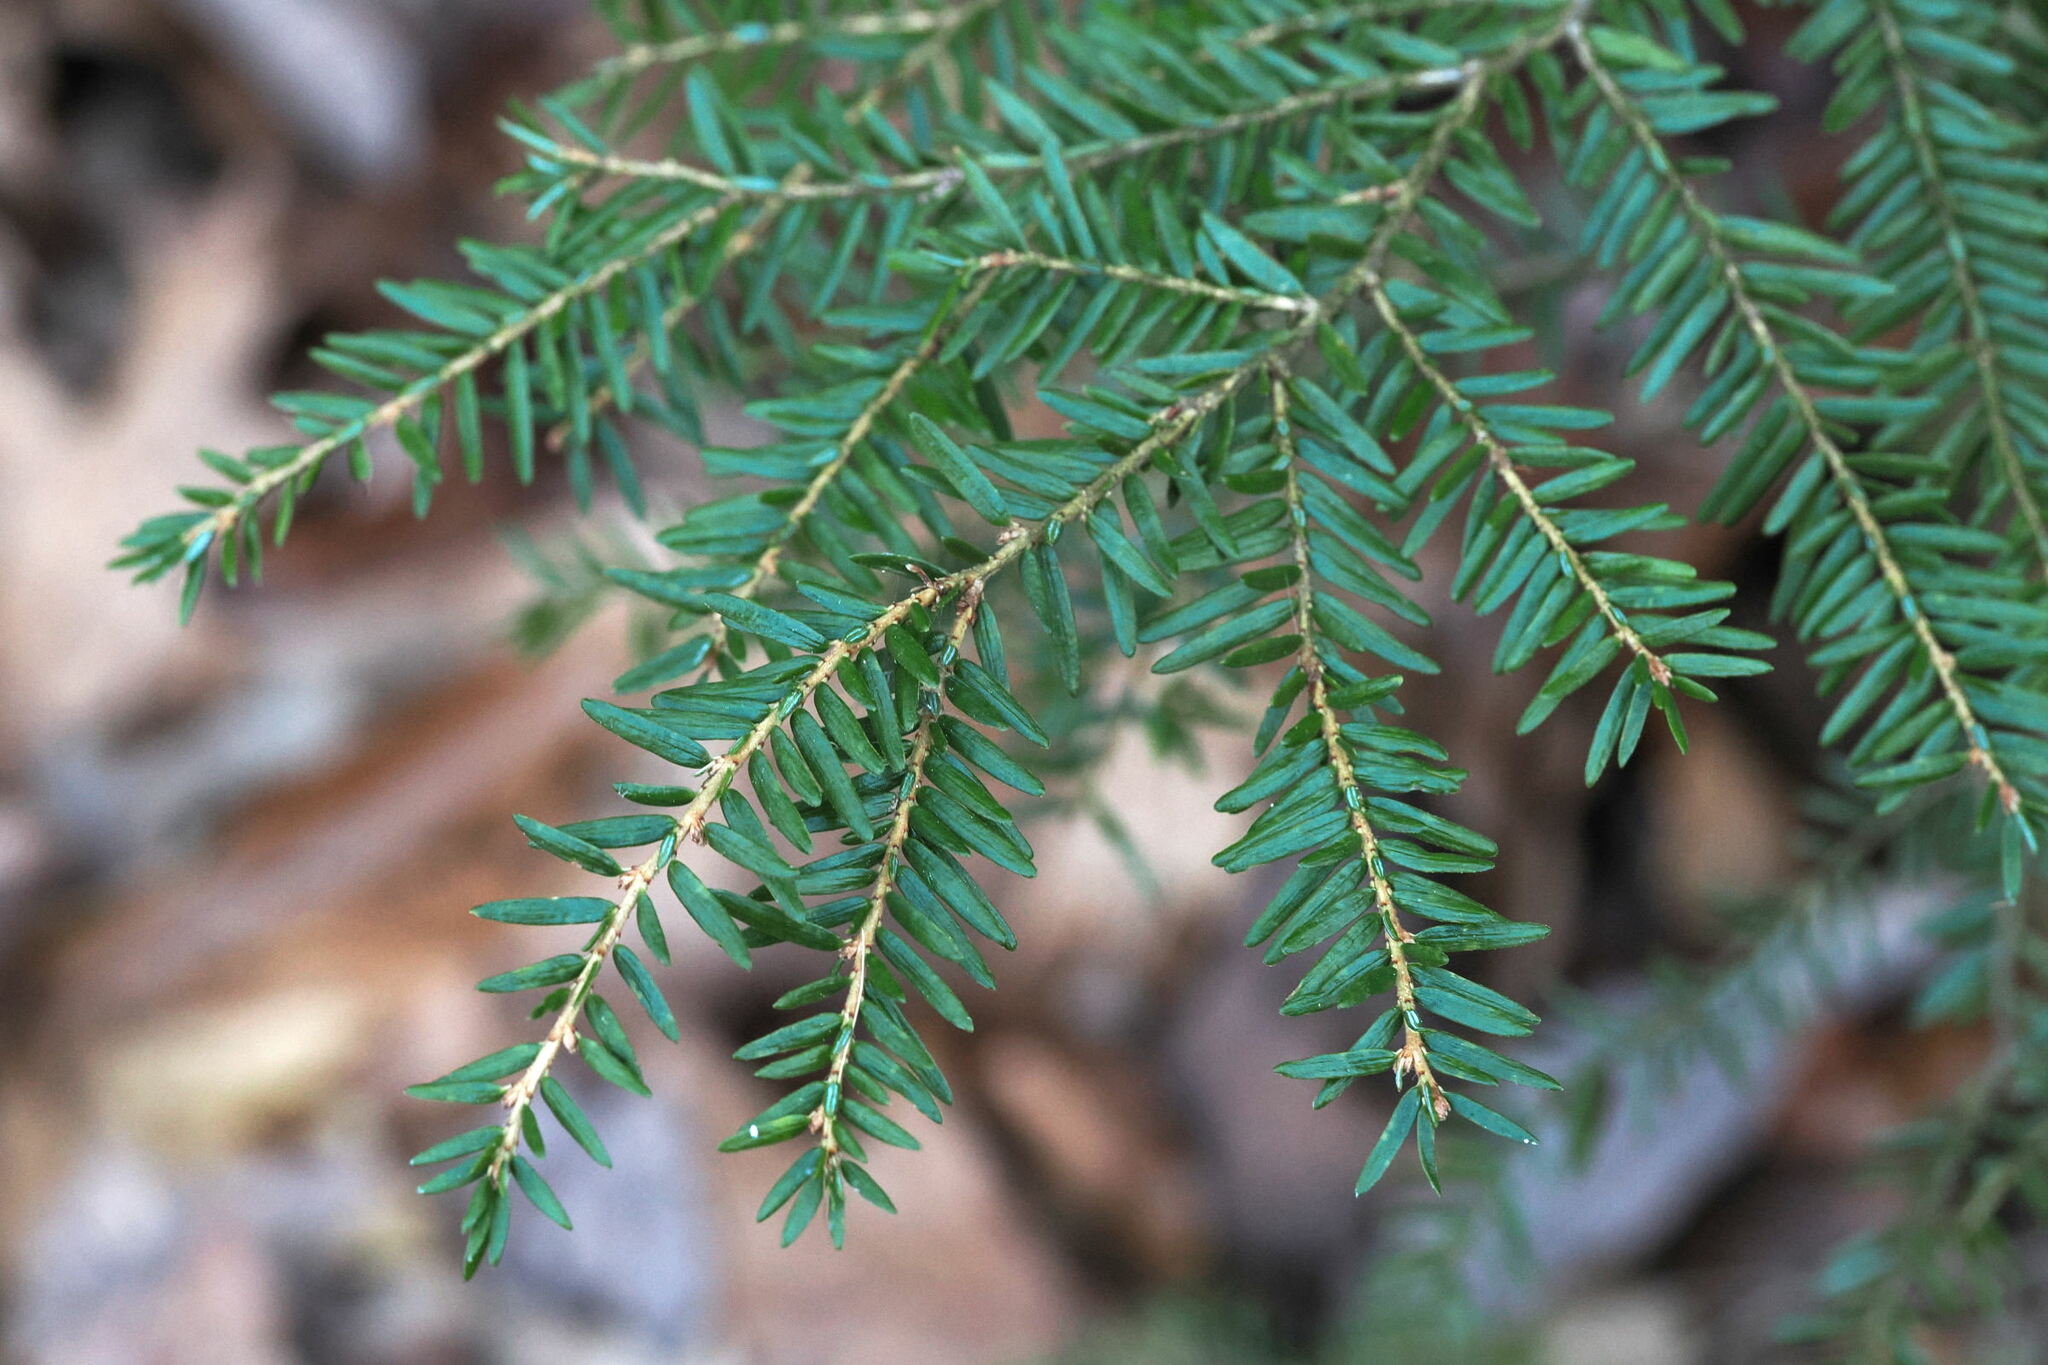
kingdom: Plantae
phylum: Tracheophyta
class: Pinopsida
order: Pinales
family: Pinaceae
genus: Tsuga
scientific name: Tsuga canadensis
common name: Eastern hemlock
